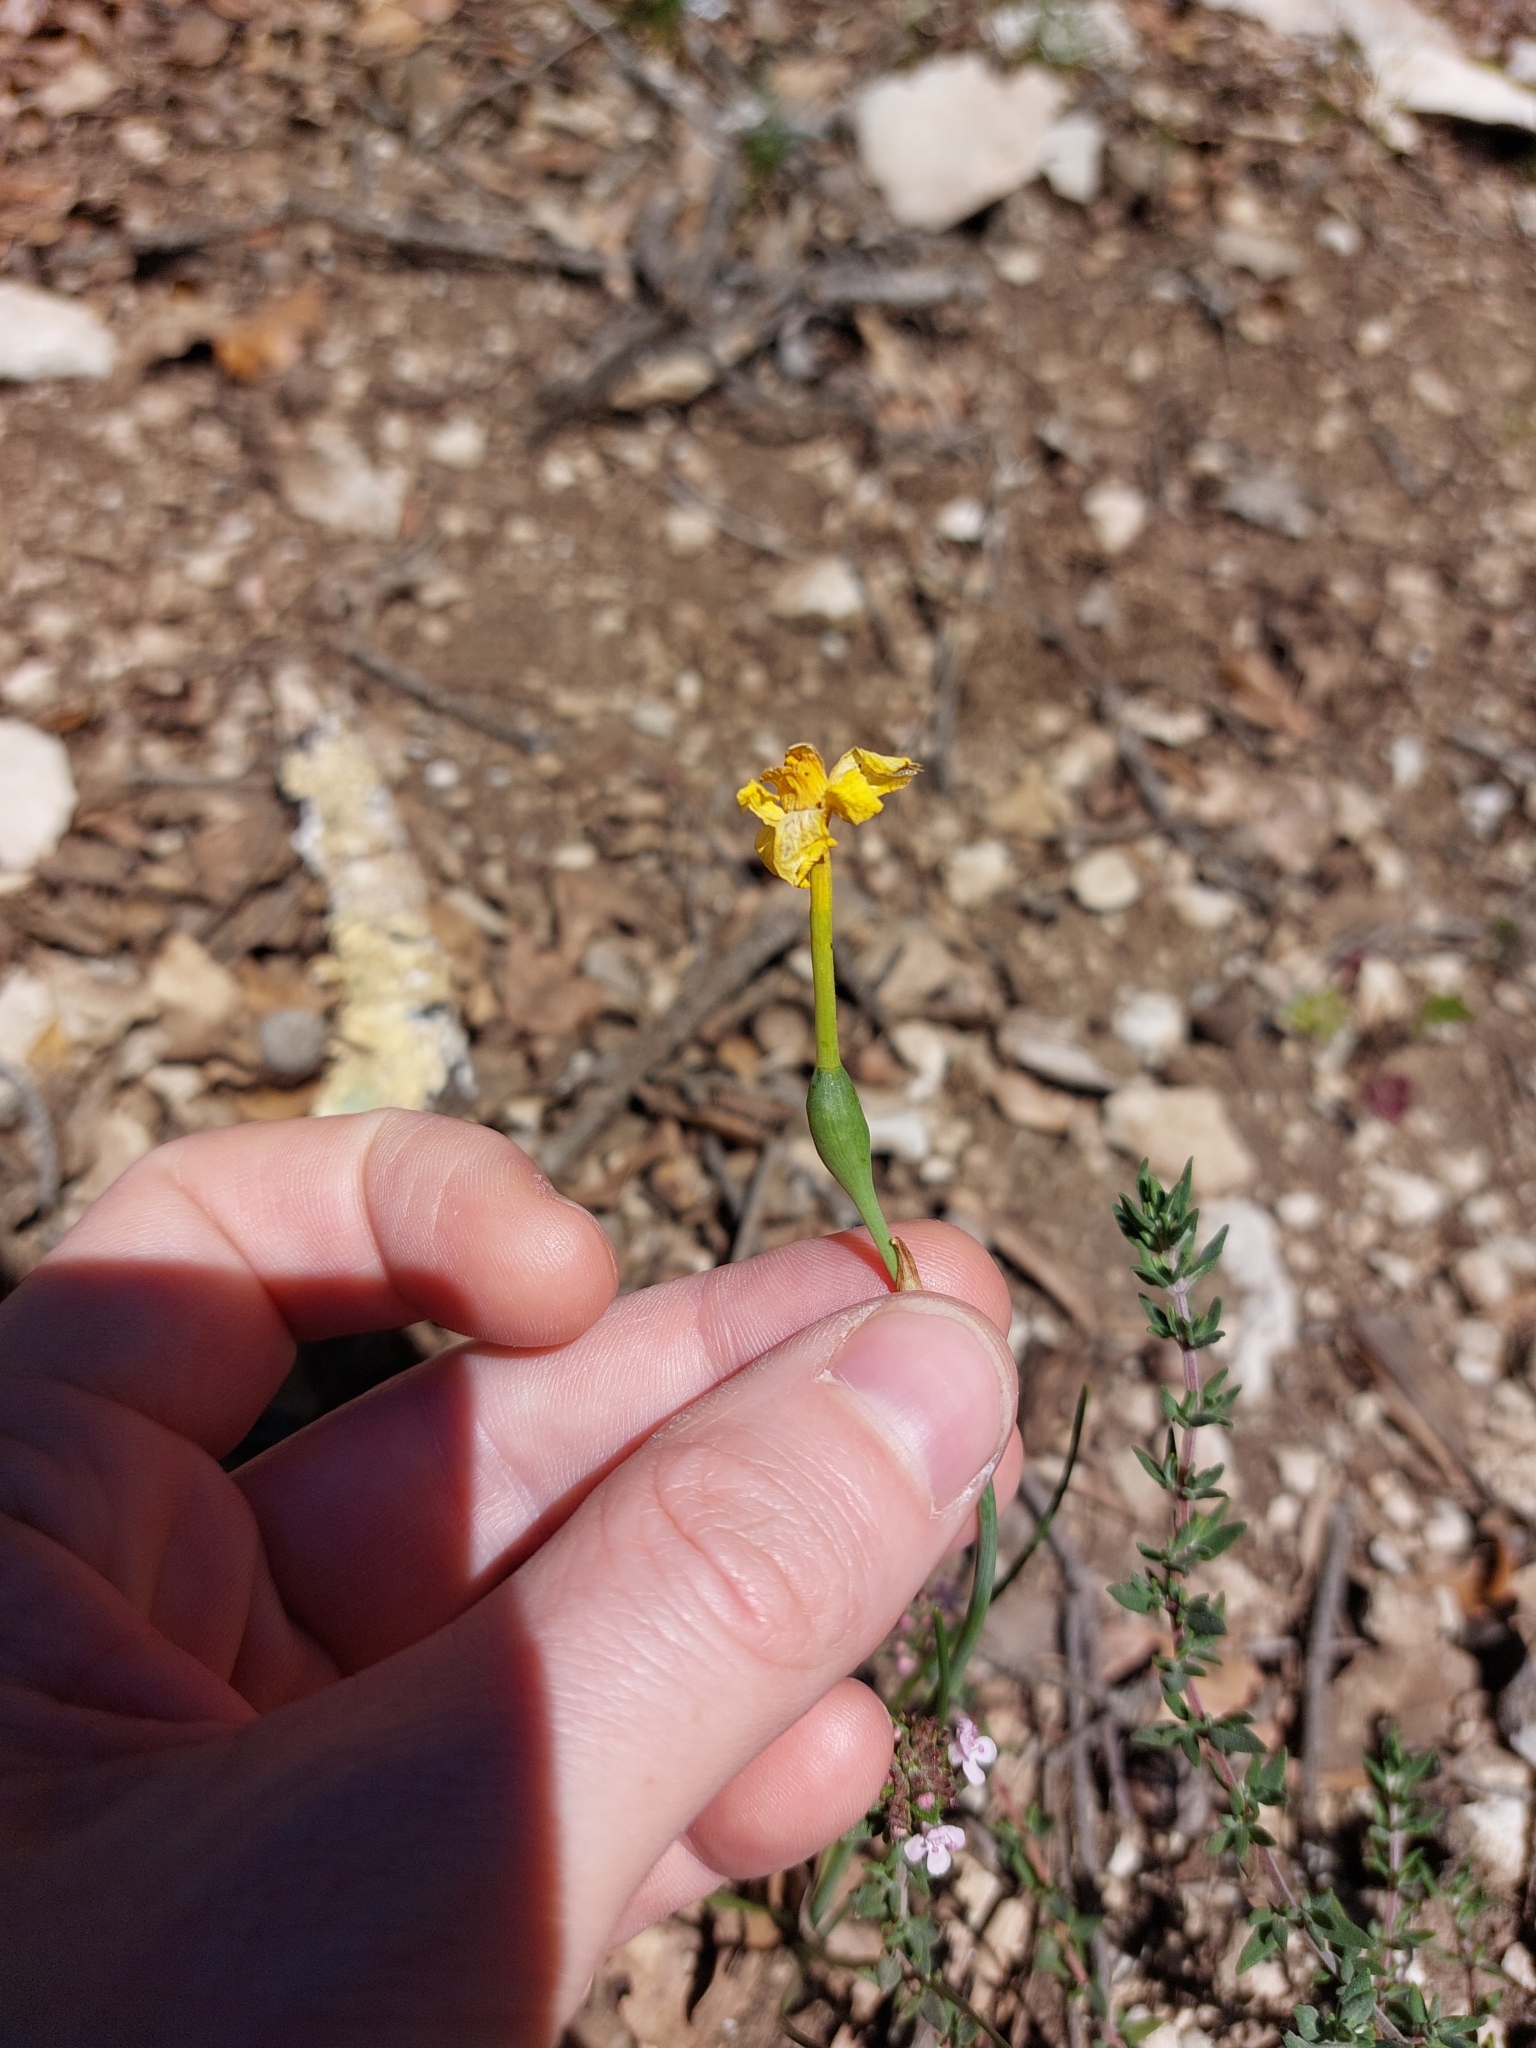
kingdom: Plantae
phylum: Tracheophyta
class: Liliopsida
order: Asparagales
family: Amaryllidaceae
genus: Narcissus
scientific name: Narcissus assoanus
